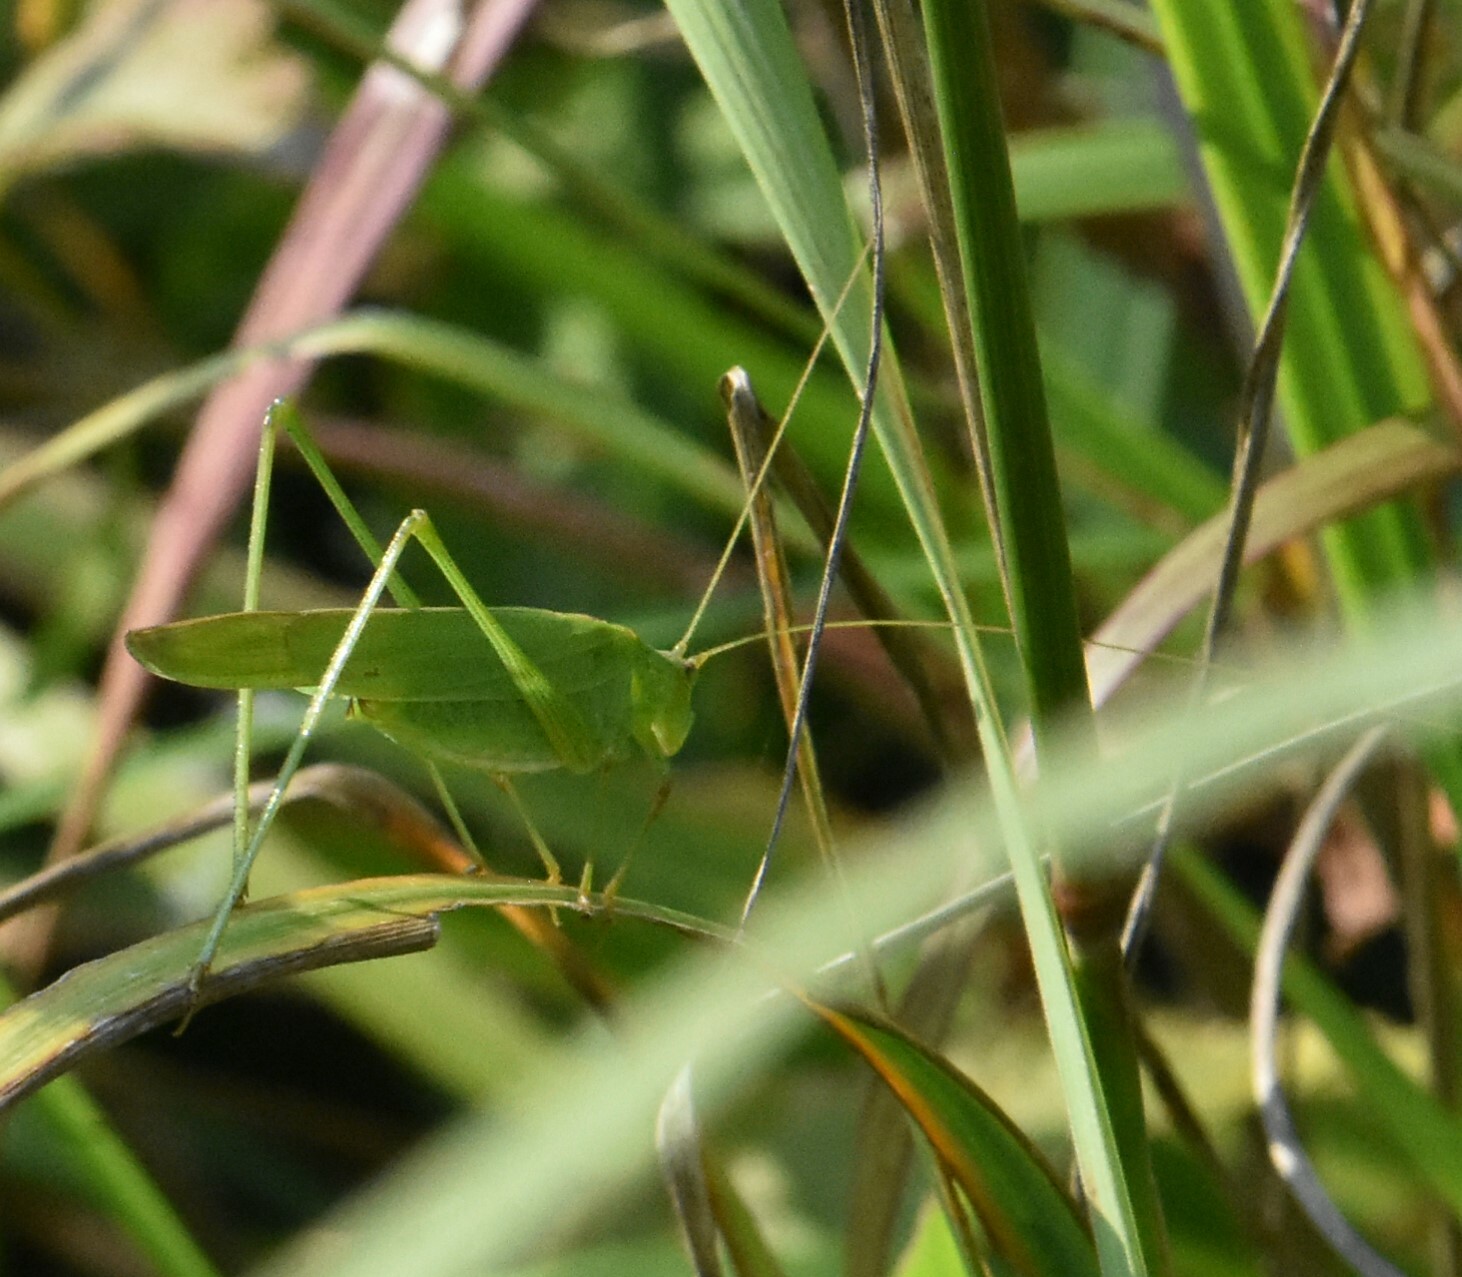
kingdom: Animalia
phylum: Arthropoda
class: Insecta
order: Orthoptera
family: Tettigoniidae
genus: Phaneroptera
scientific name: Phaneroptera falcata
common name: Sickle-bearing bush-cricket
